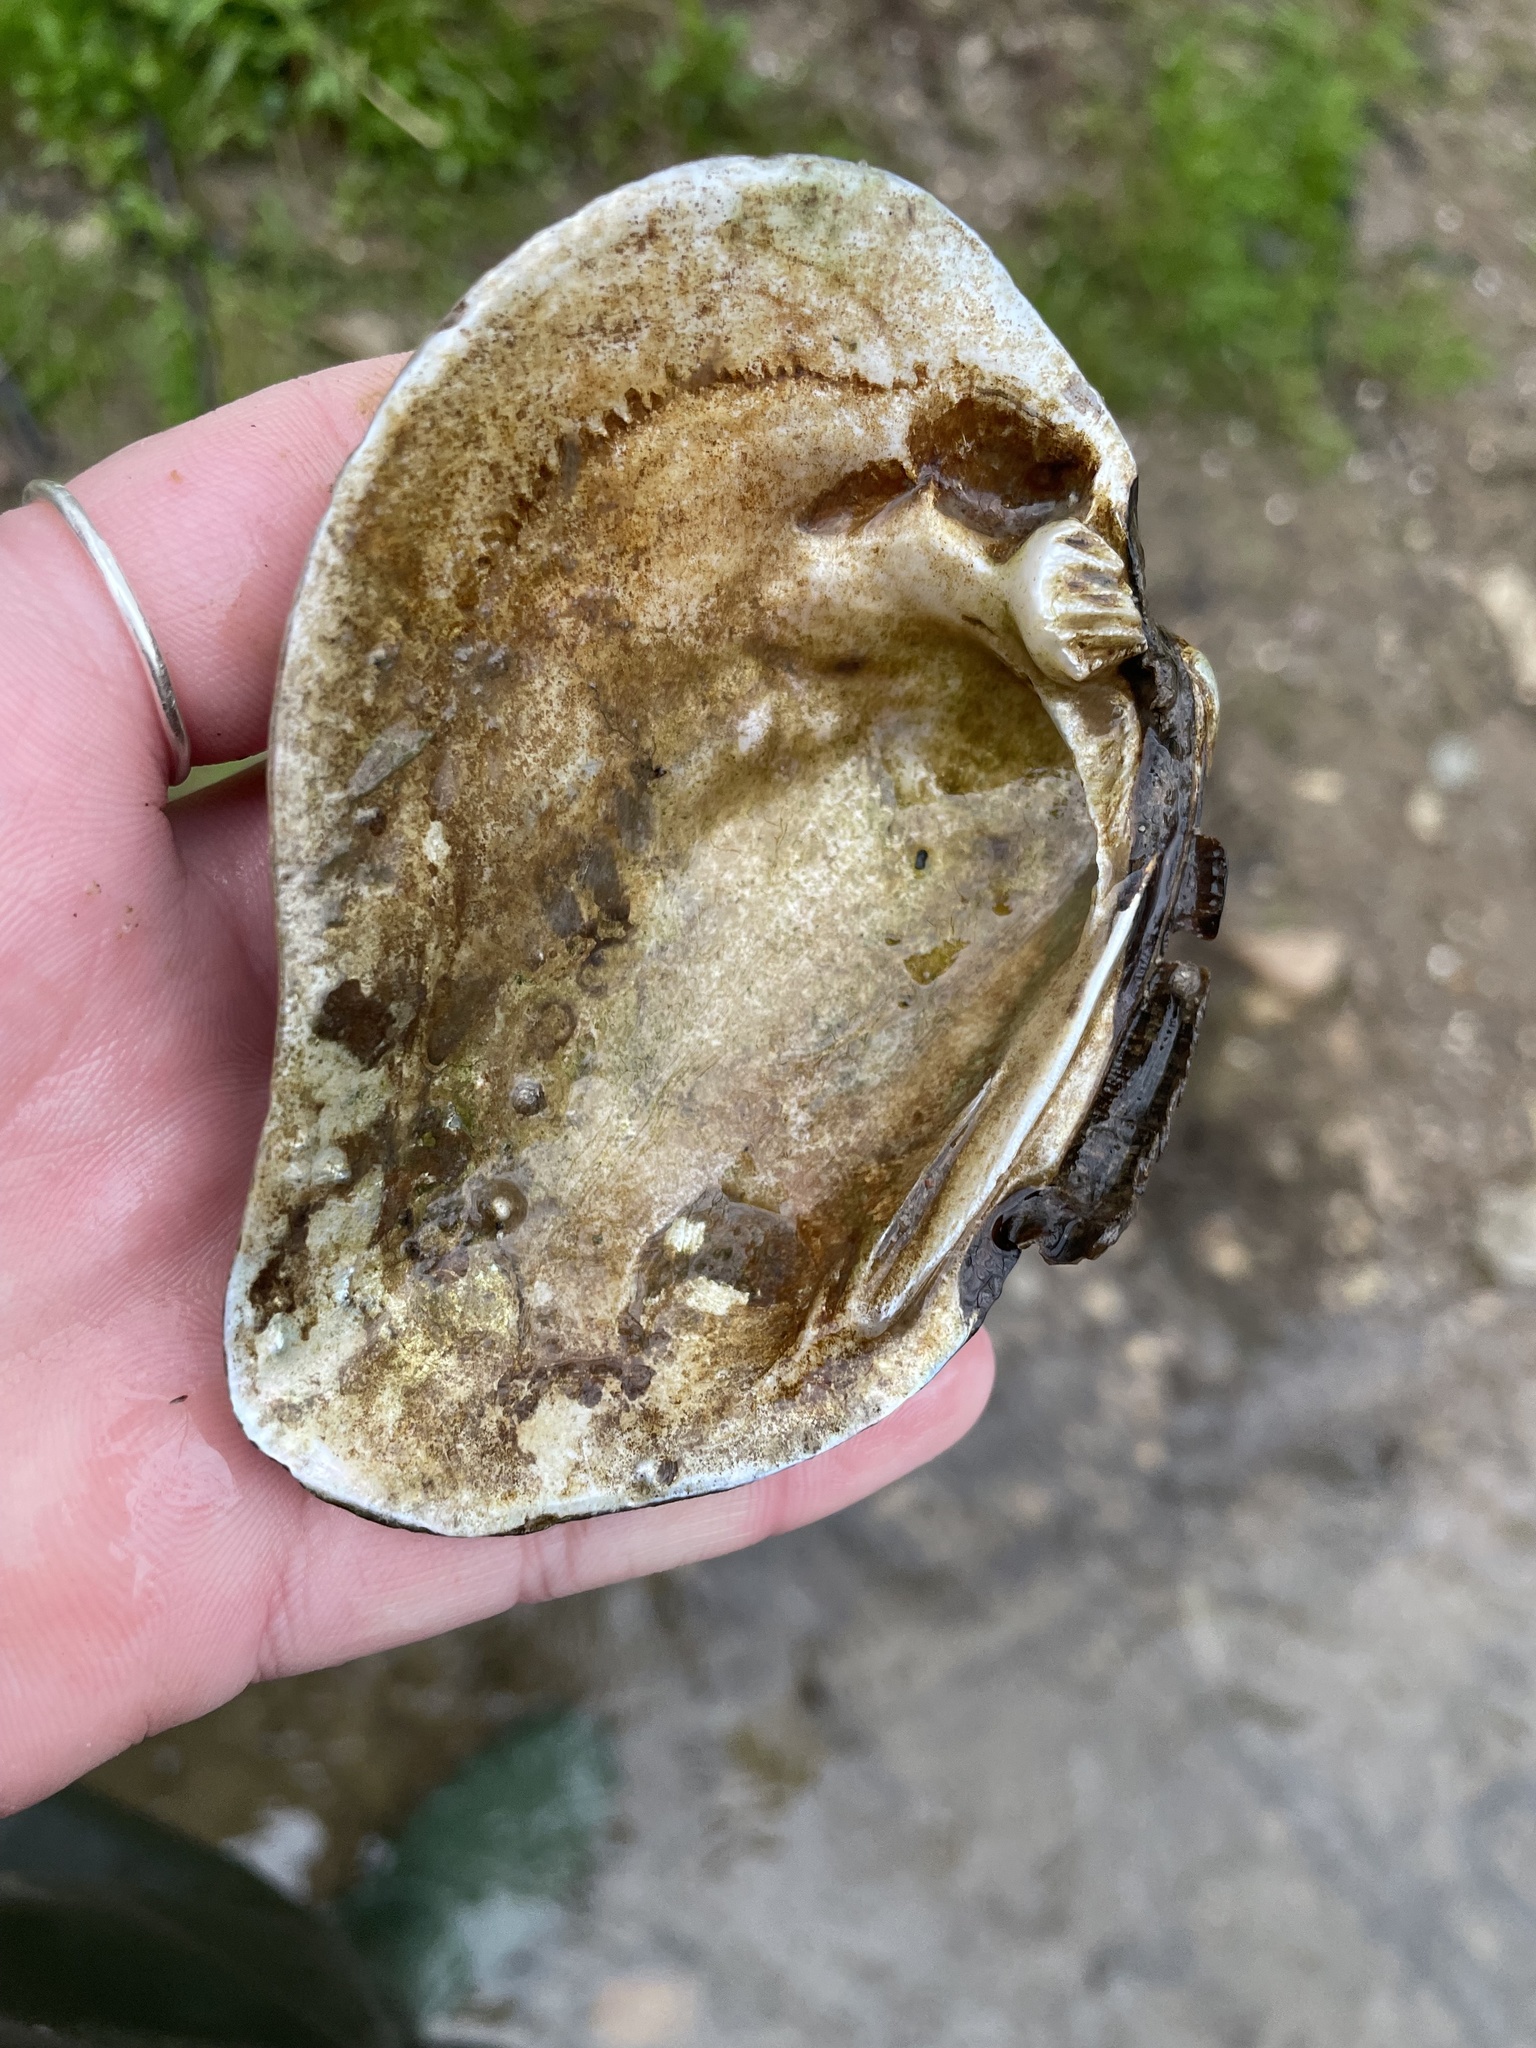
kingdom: Animalia
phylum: Mollusca
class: Bivalvia
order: Unionida
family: Unionidae
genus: Fusconaia
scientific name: Fusconaia flava
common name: Wabash pigtoe
